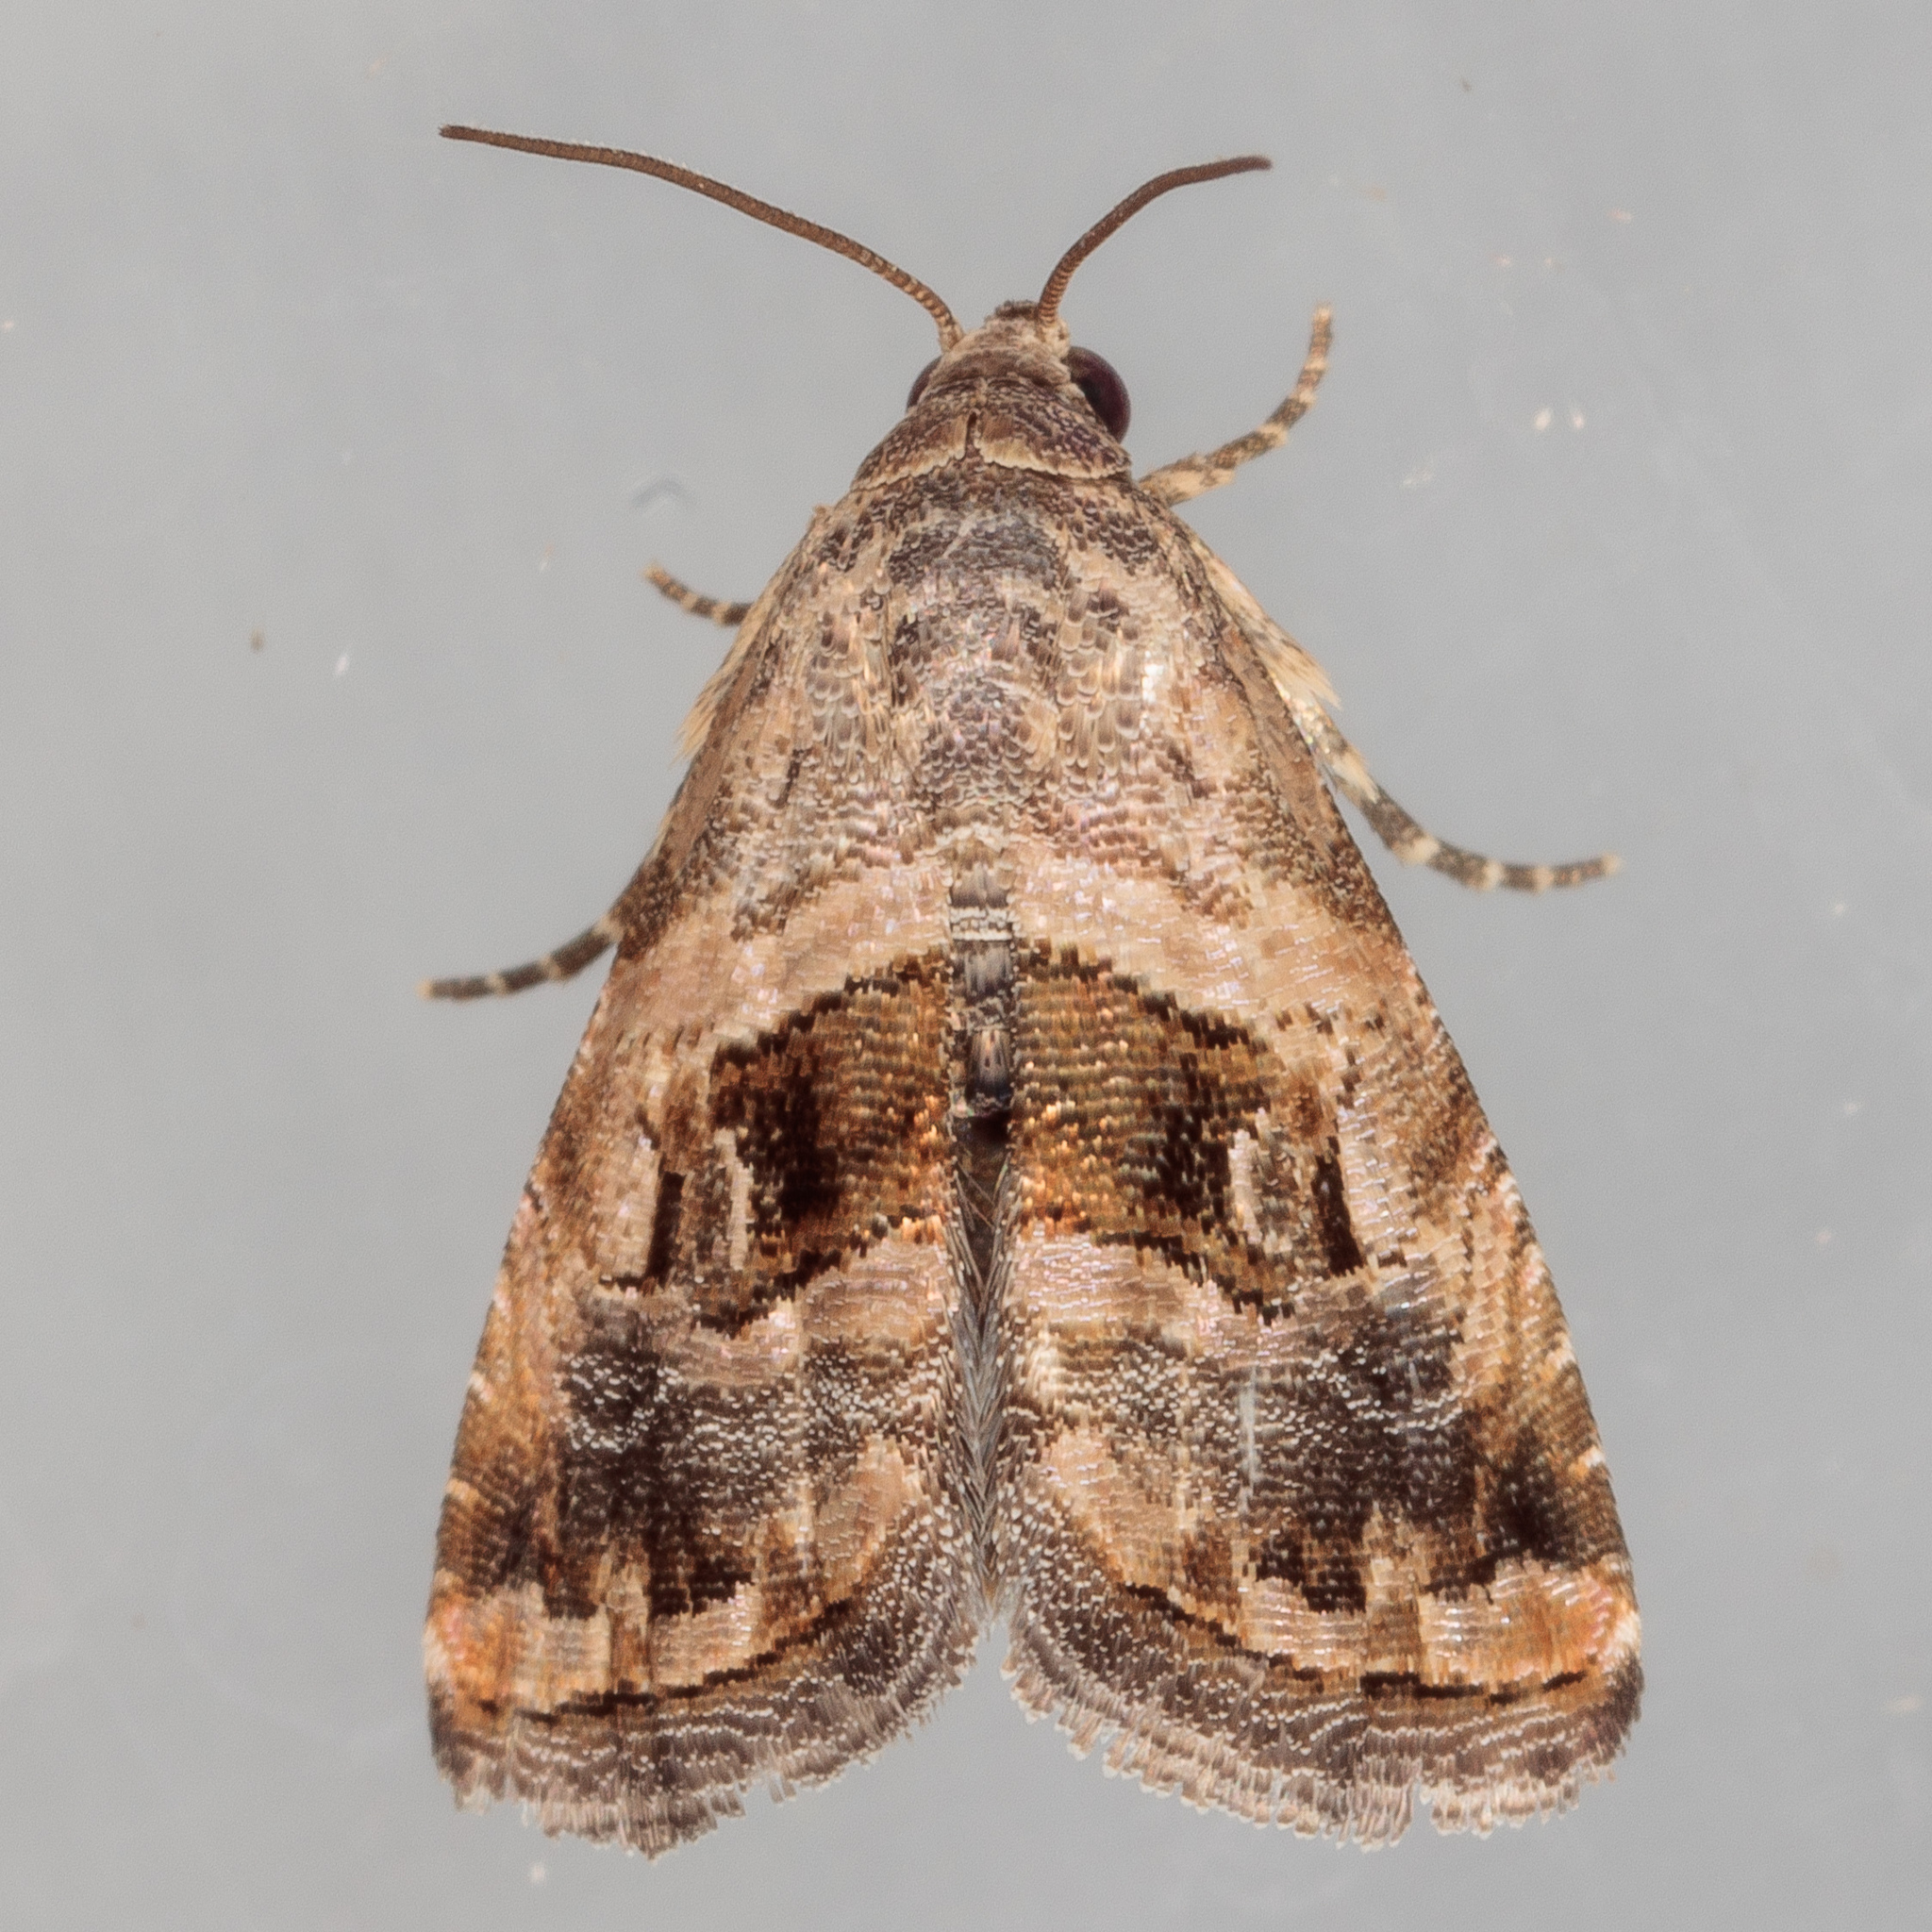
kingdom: Animalia
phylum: Arthropoda
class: Insecta
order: Lepidoptera
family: Noctuidae
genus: Tripudia
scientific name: Tripudia quadrifera
